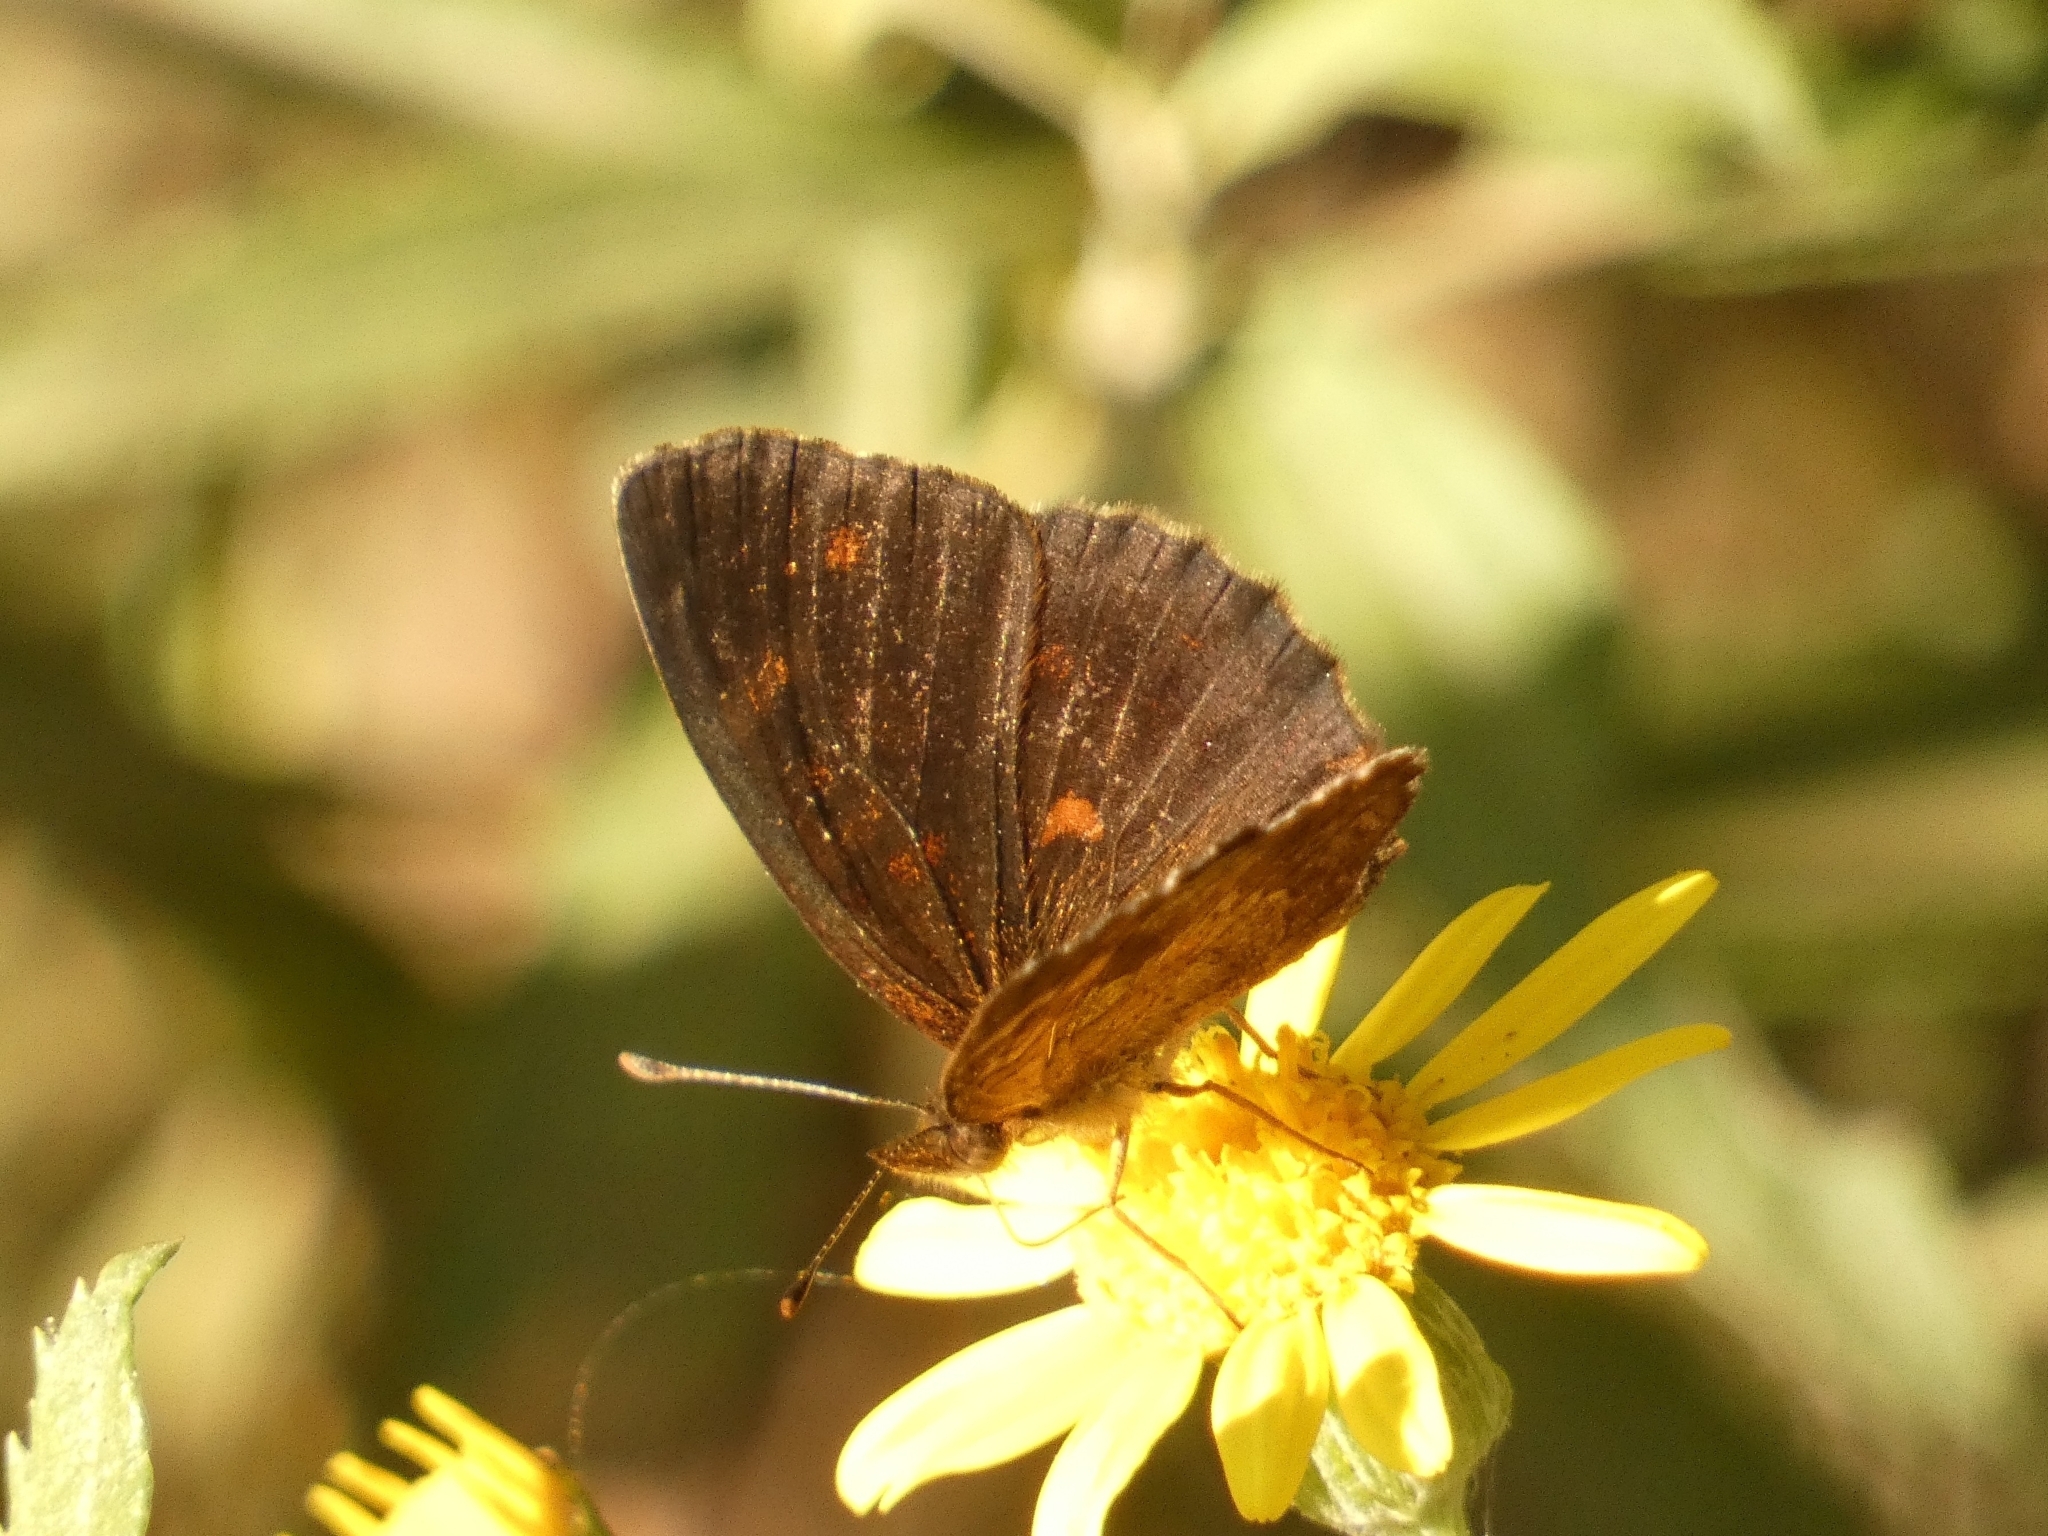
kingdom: Animalia
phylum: Arthropoda
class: Insecta
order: Lepidoptera
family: Nymphalidae
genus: Ortilia
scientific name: Ortilia velica
